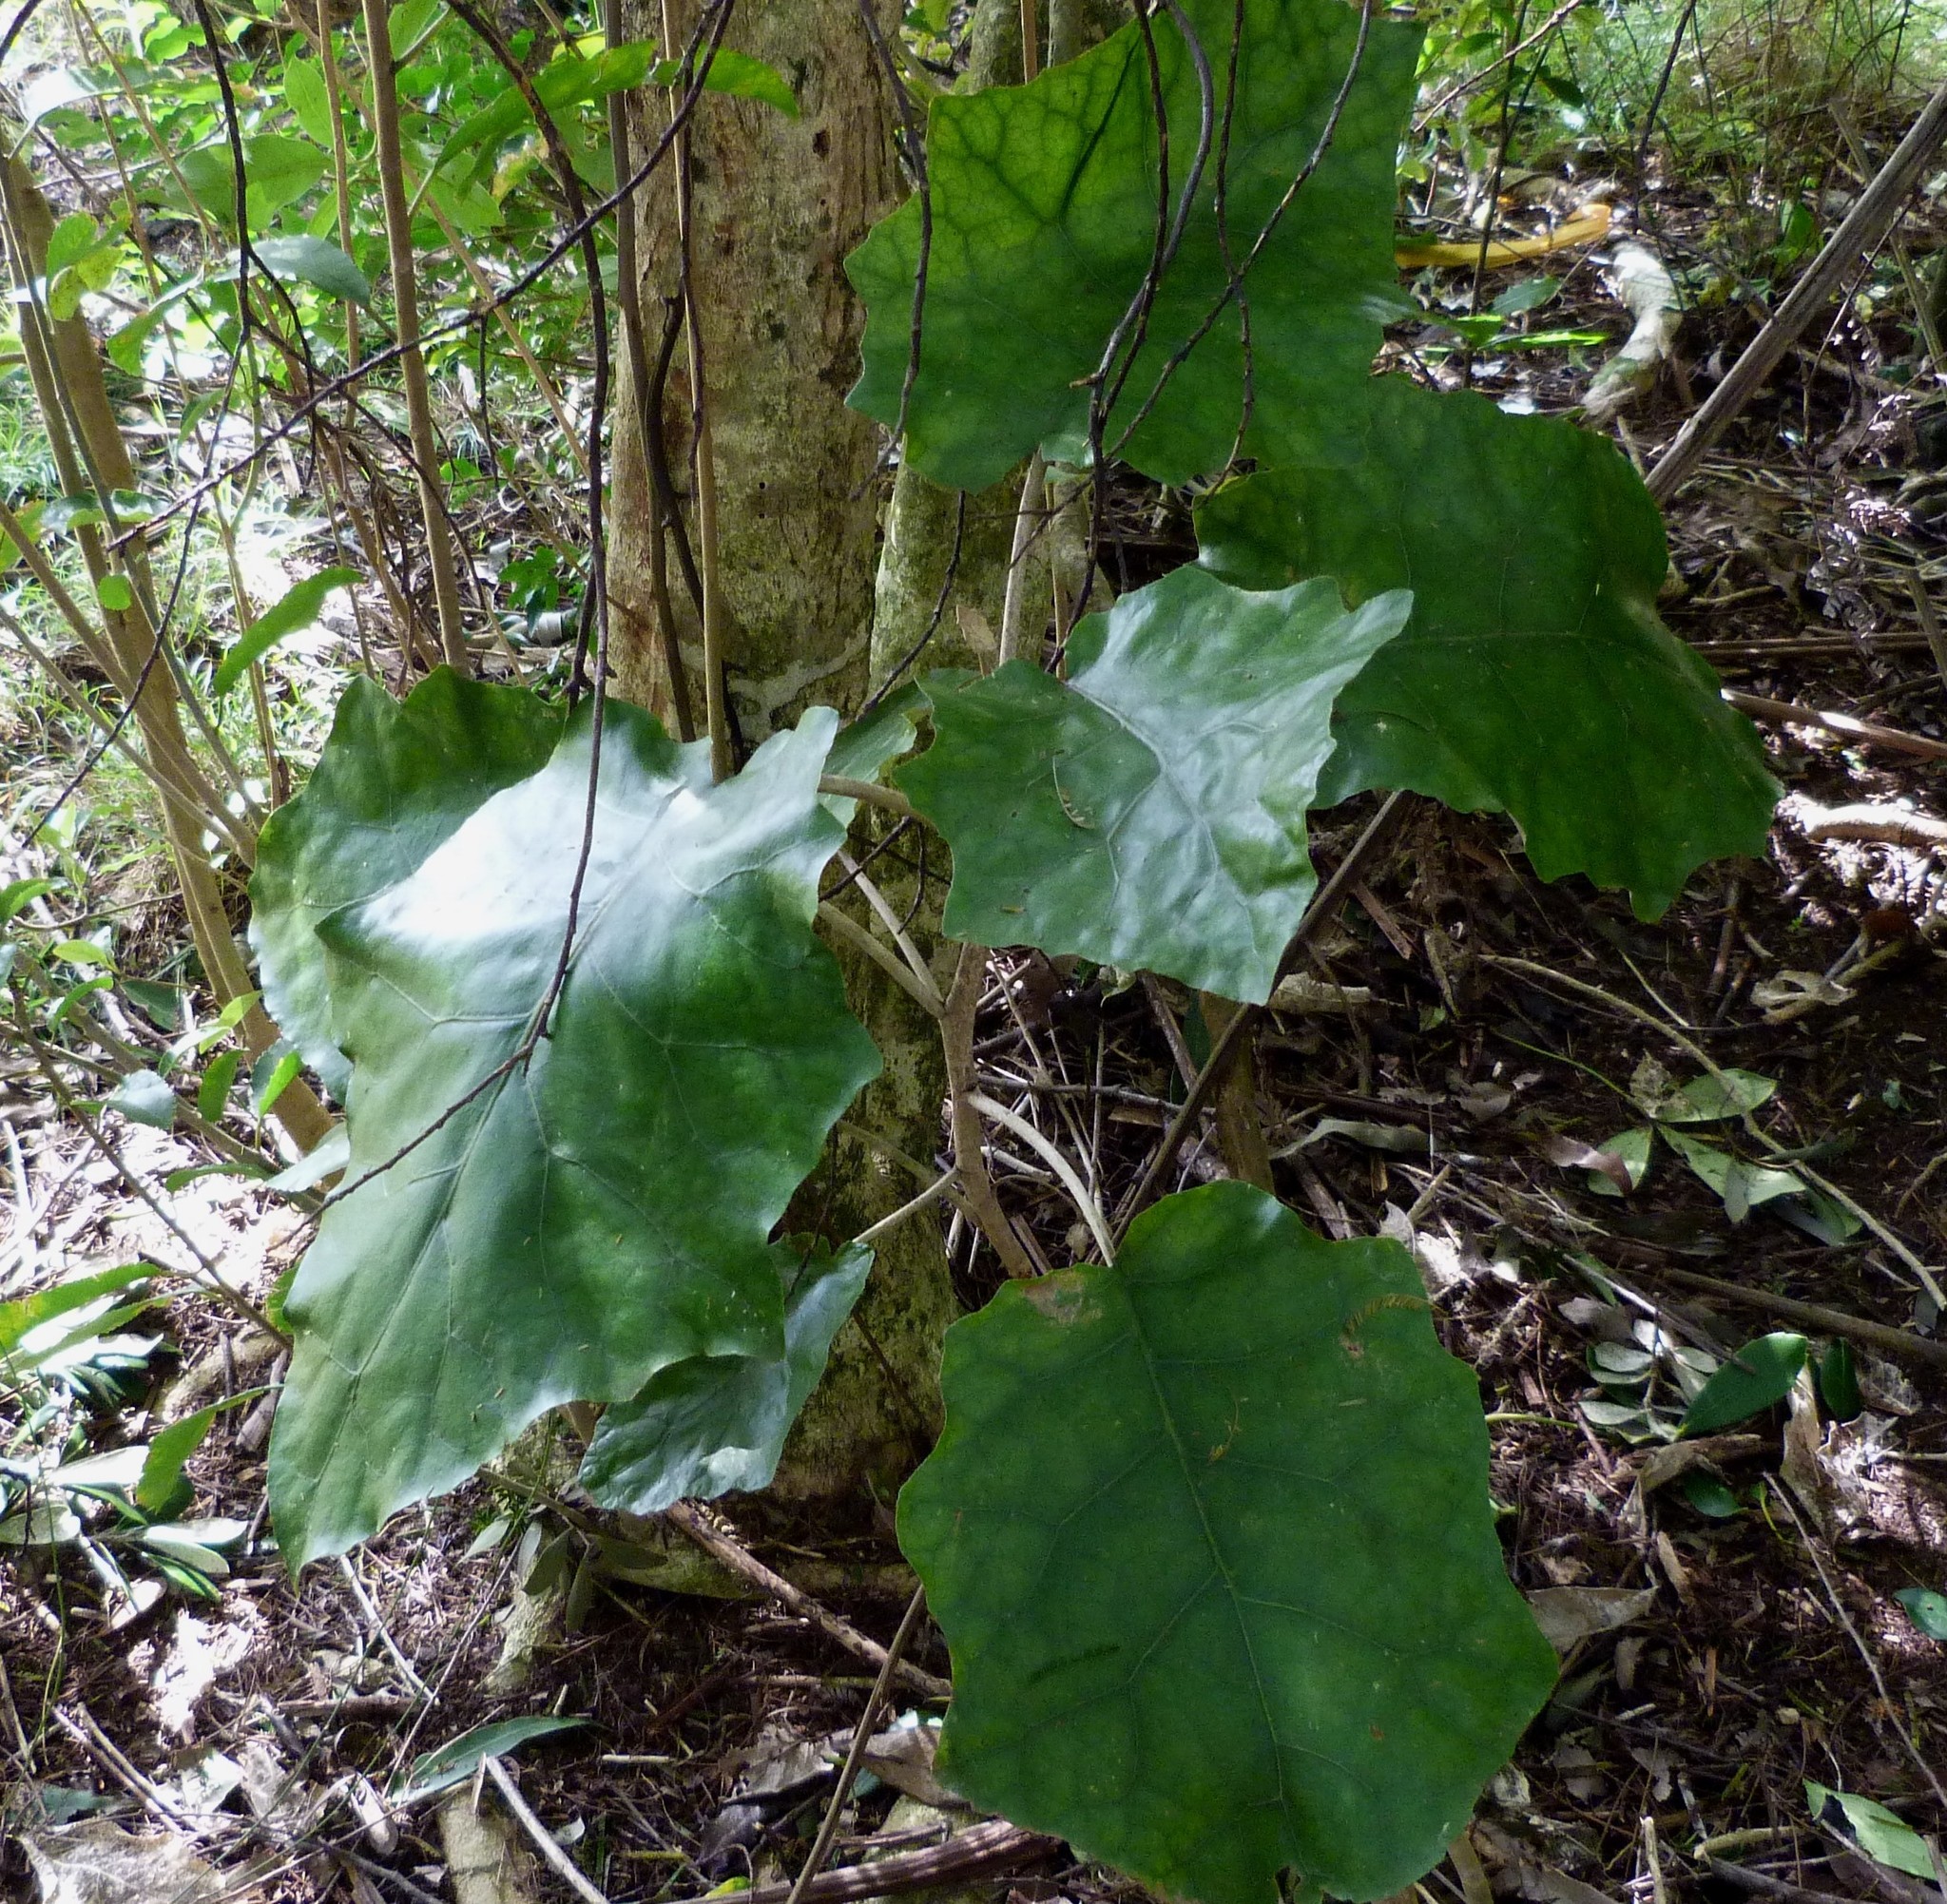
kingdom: Plantae
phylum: Tracheophyta
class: Magnoliopsida
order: Asterales
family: Asteraceae
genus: Brachyglottis
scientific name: Brachyglottis repanda
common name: Hedge ragwort
